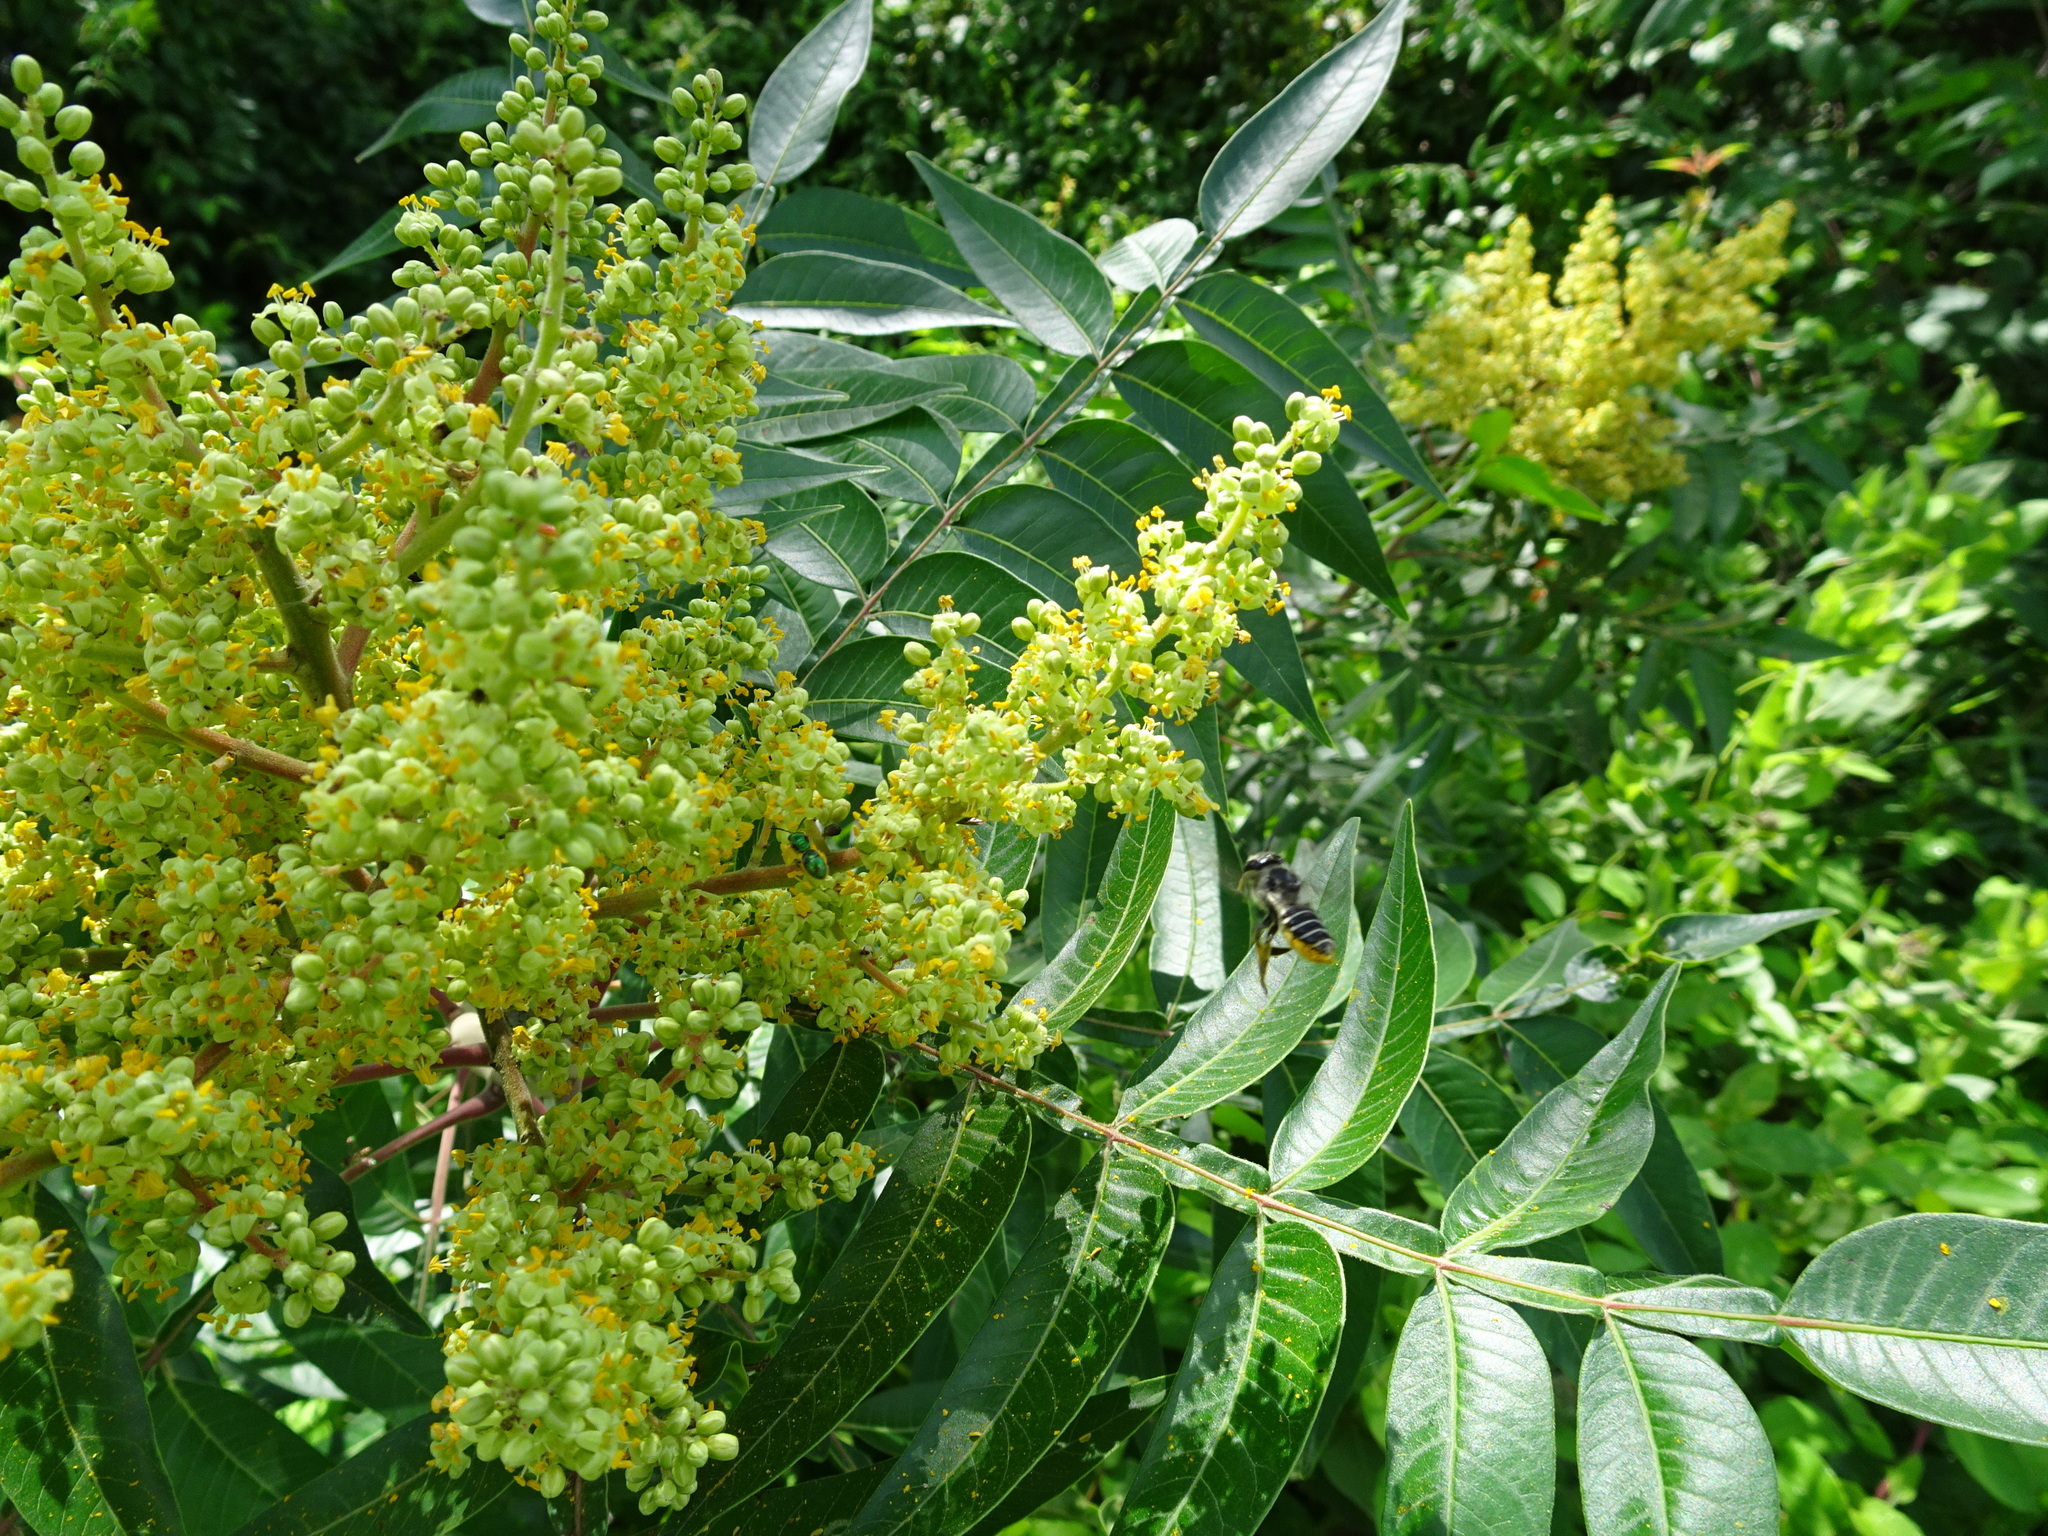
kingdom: Plantae
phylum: Tracheophyta
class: Magnoliopsida
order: Sapindales
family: Anacardiaceae
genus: Rhus
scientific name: Rhus copallina
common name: Shining sumac
